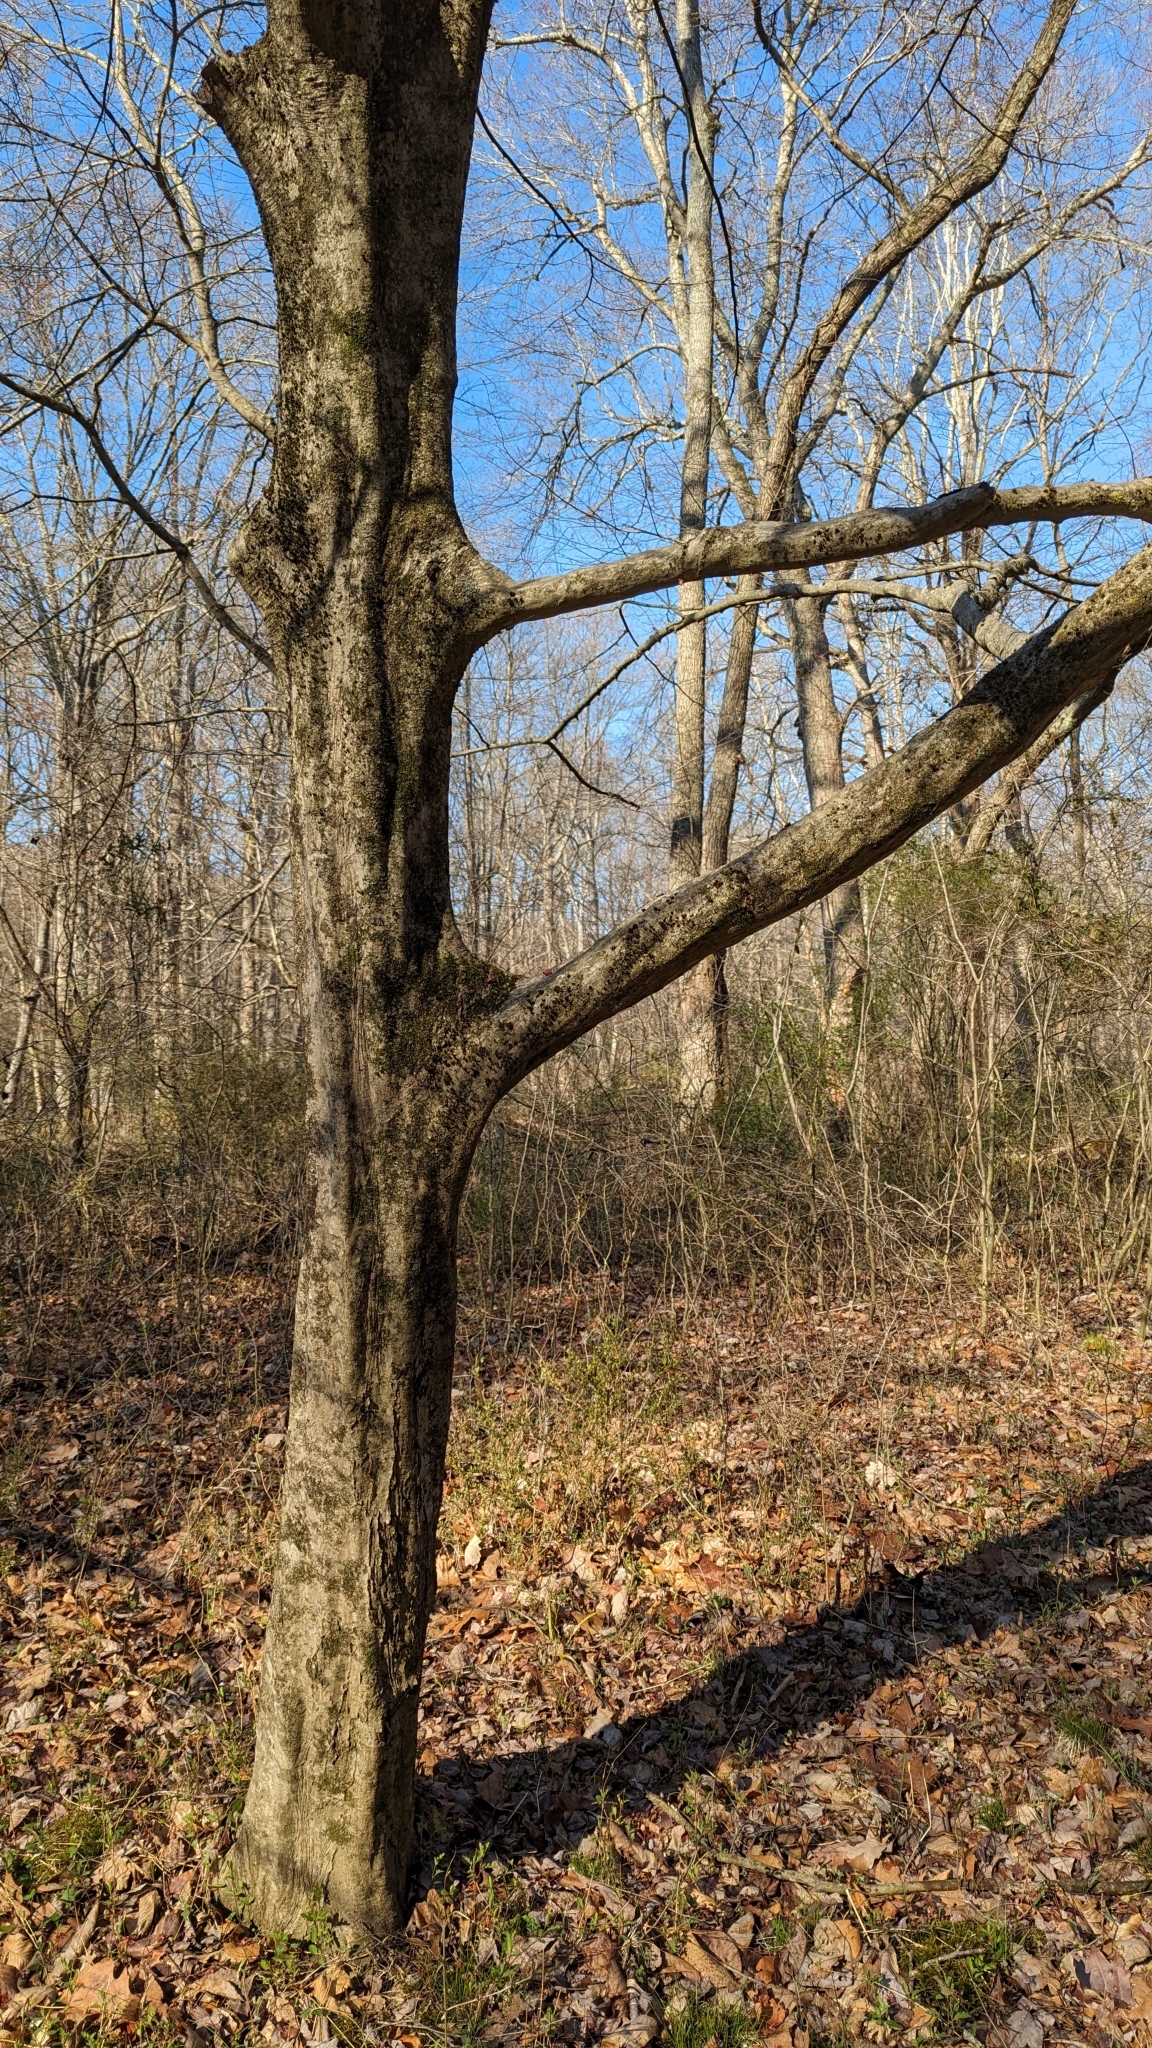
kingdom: Plantae
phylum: Tracheophyta
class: Magnoliopsida
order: Fagales
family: Betulaceae
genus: Carpinus
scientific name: Carpinus caroliniana
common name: American hornbeam
